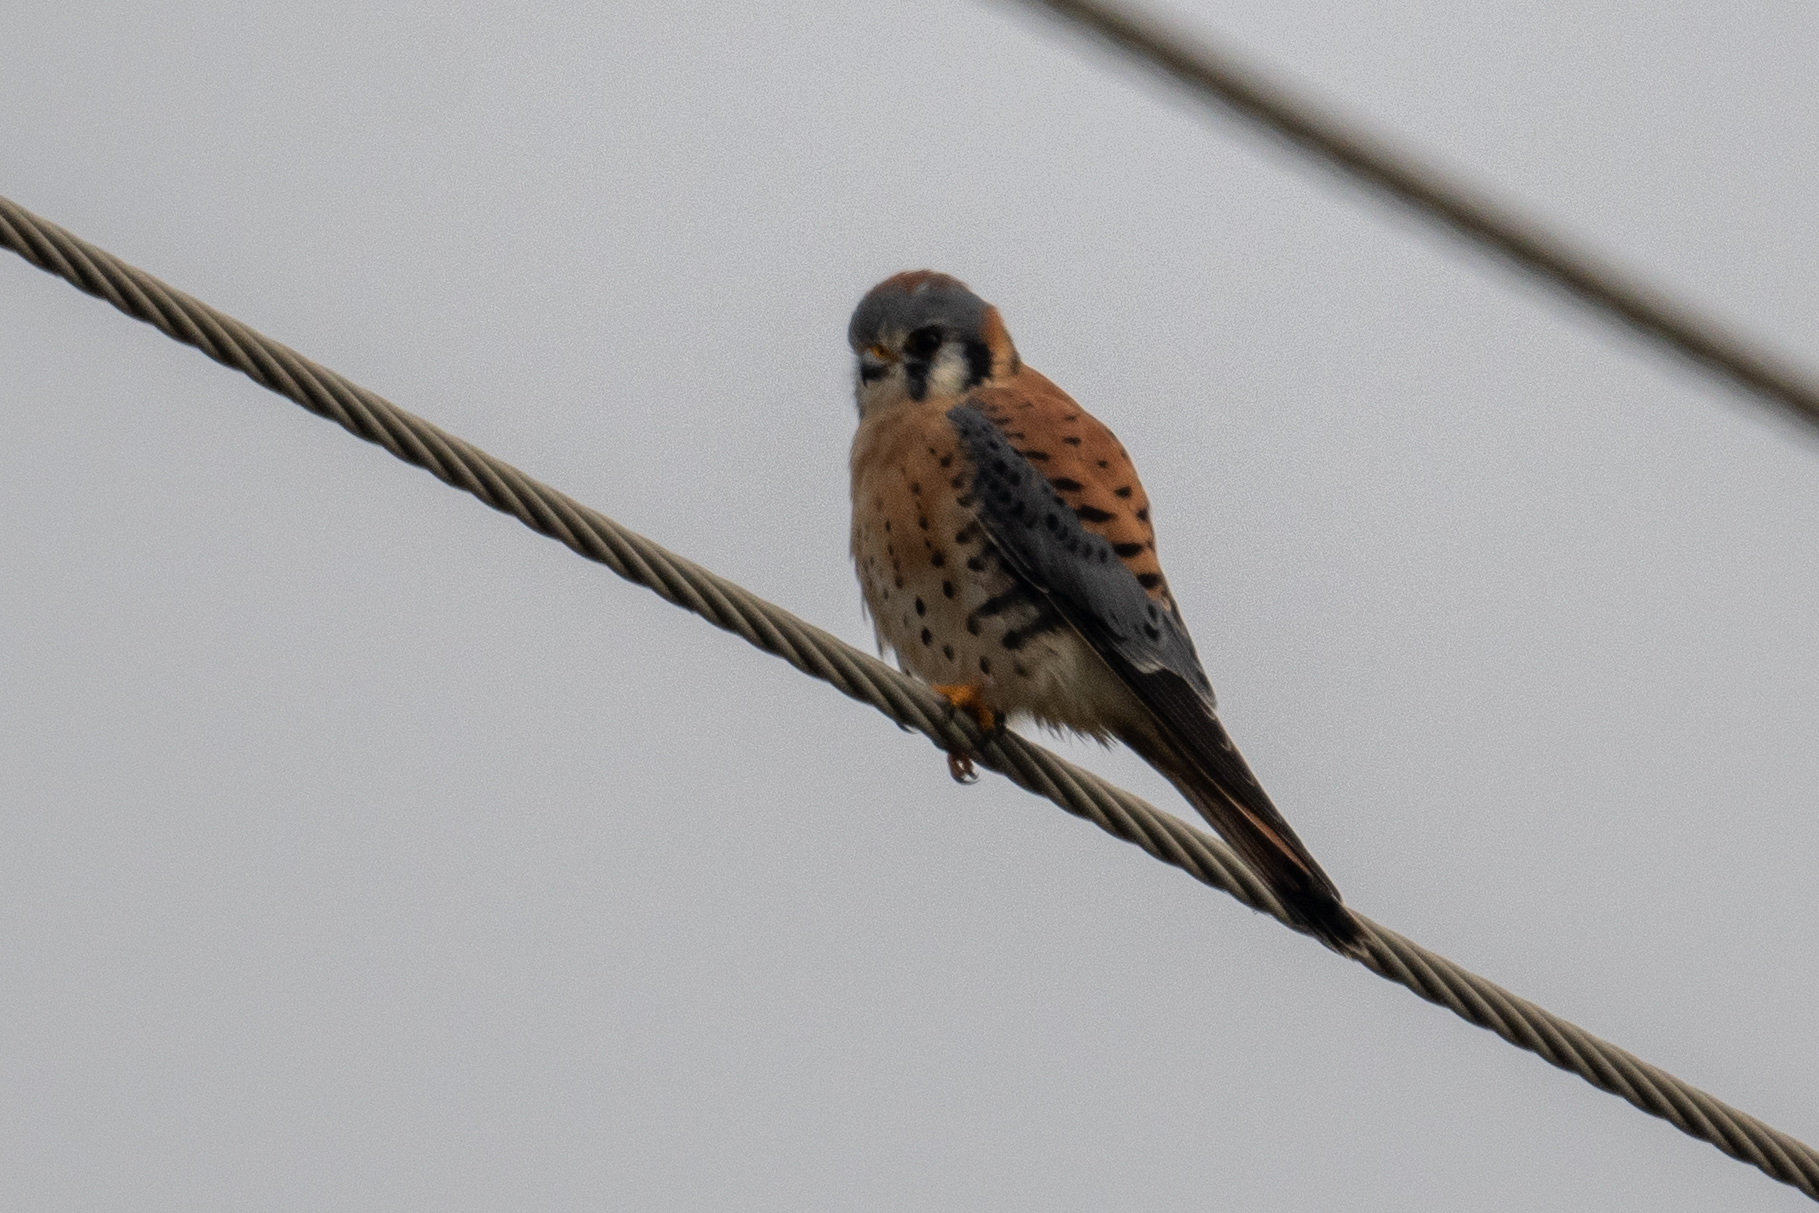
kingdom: Animalia
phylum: Chordata
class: Aves
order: Falconiformes
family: Falconidae
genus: Falco
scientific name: Falco sparverius
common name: American kestrel
